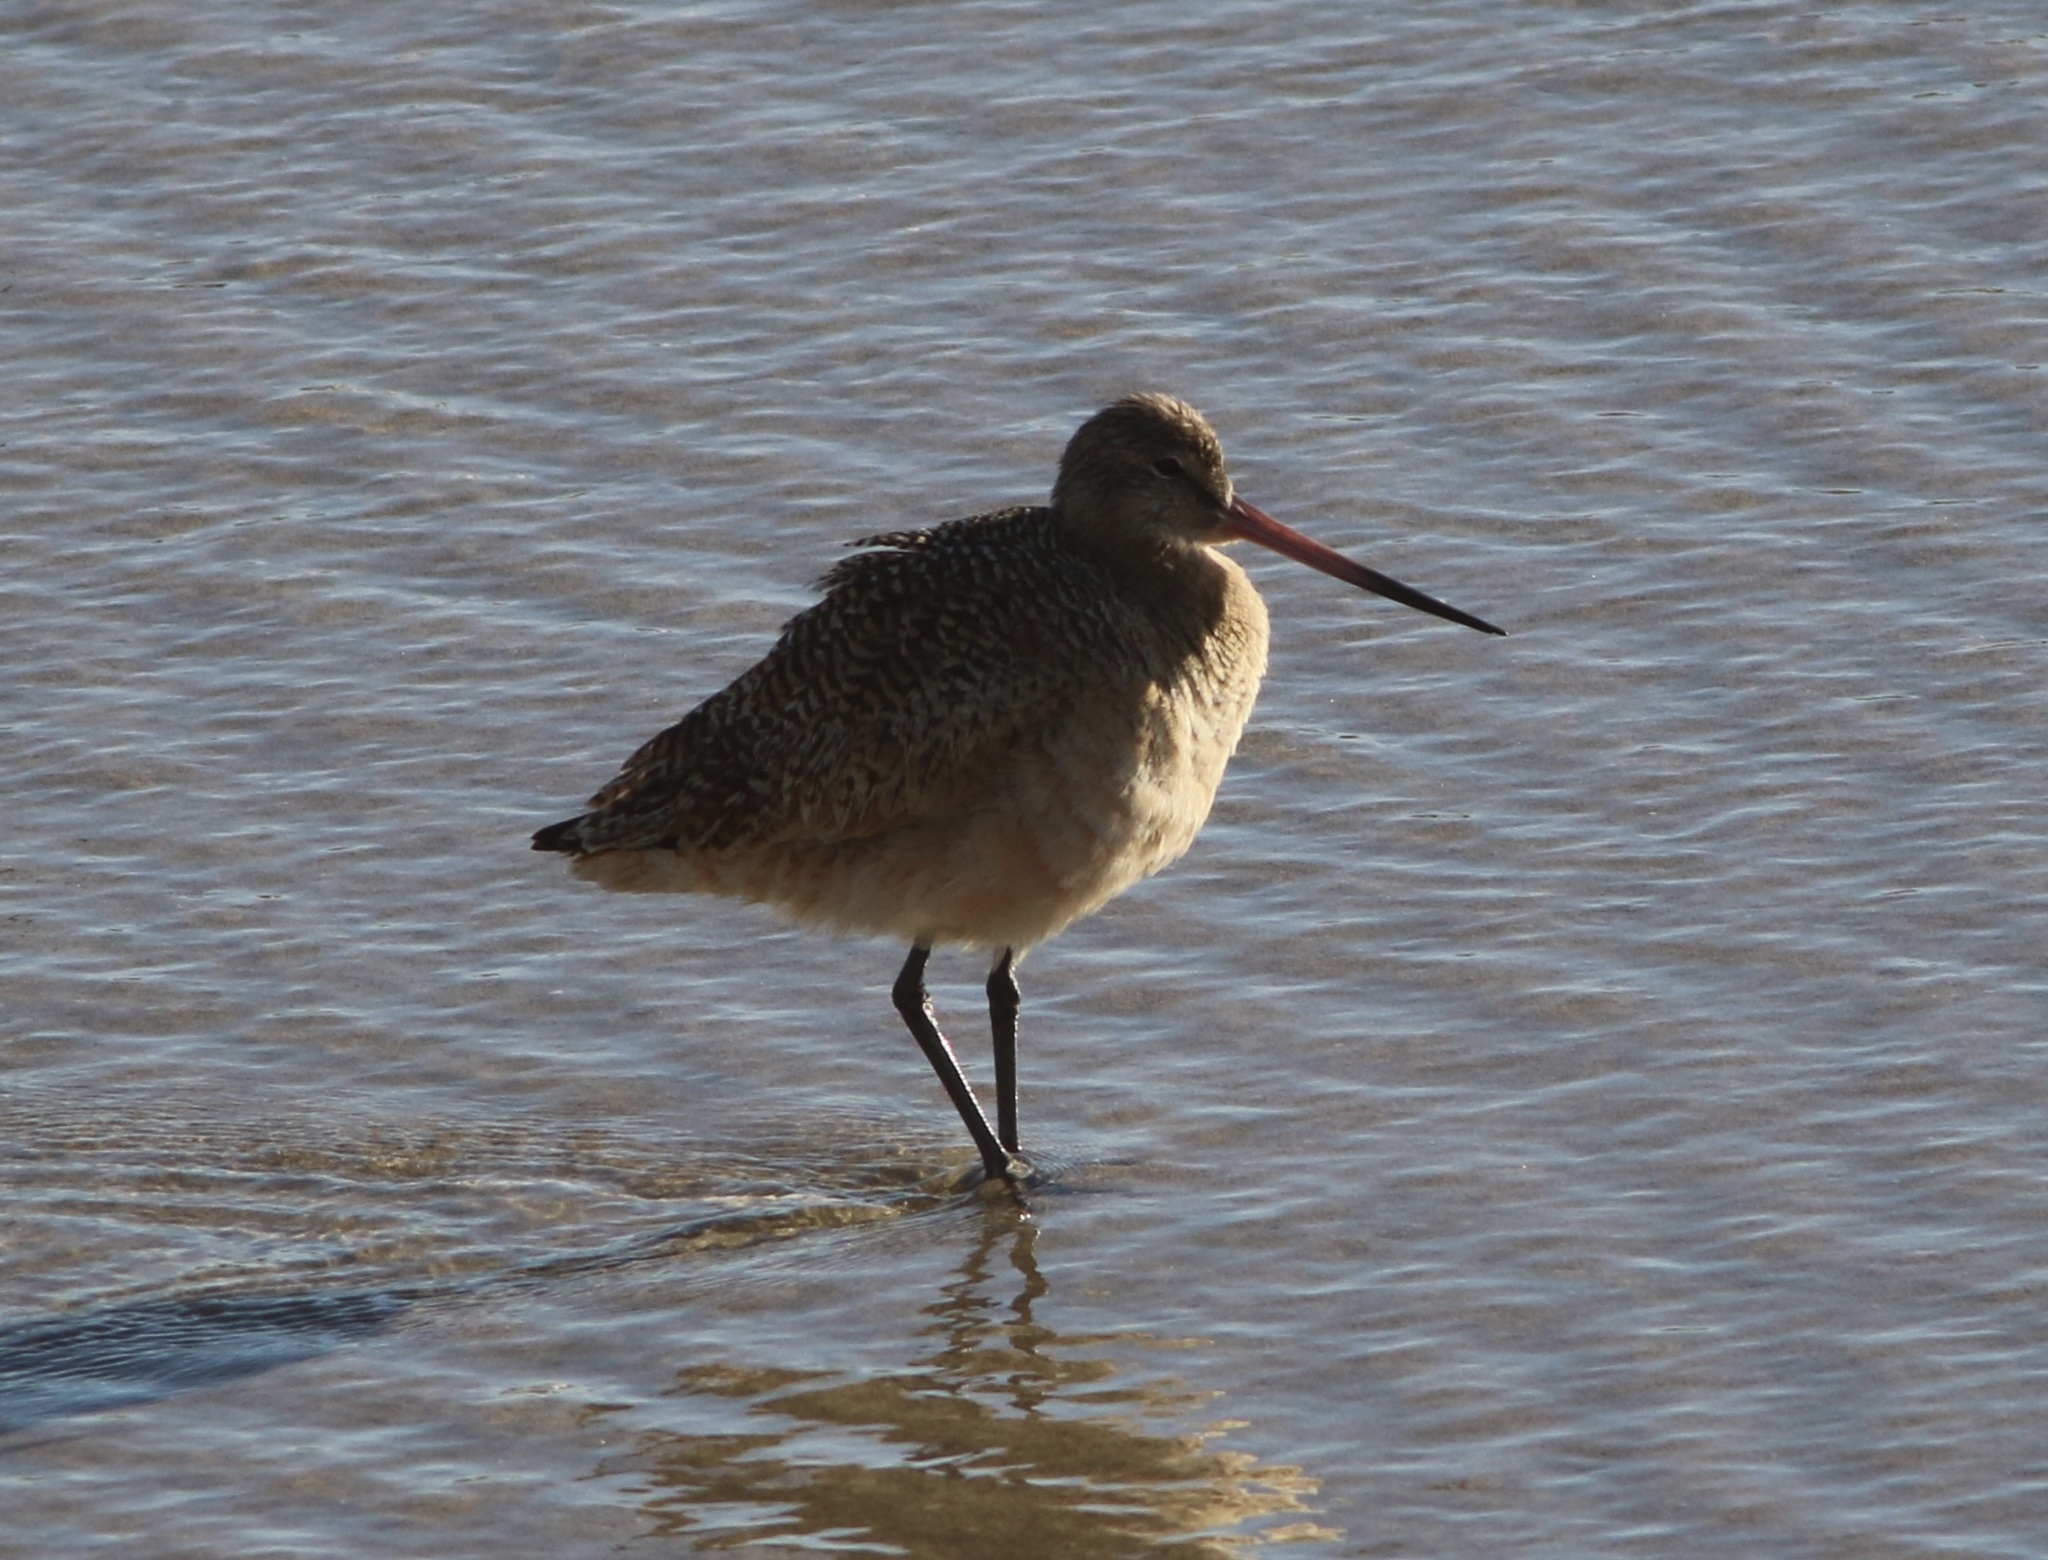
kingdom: Animalia
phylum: Chordata
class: Aves
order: Charadriiformes
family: Scolopacidae
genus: Limosa
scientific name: Limosa fedoa
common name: Marbled godwit
